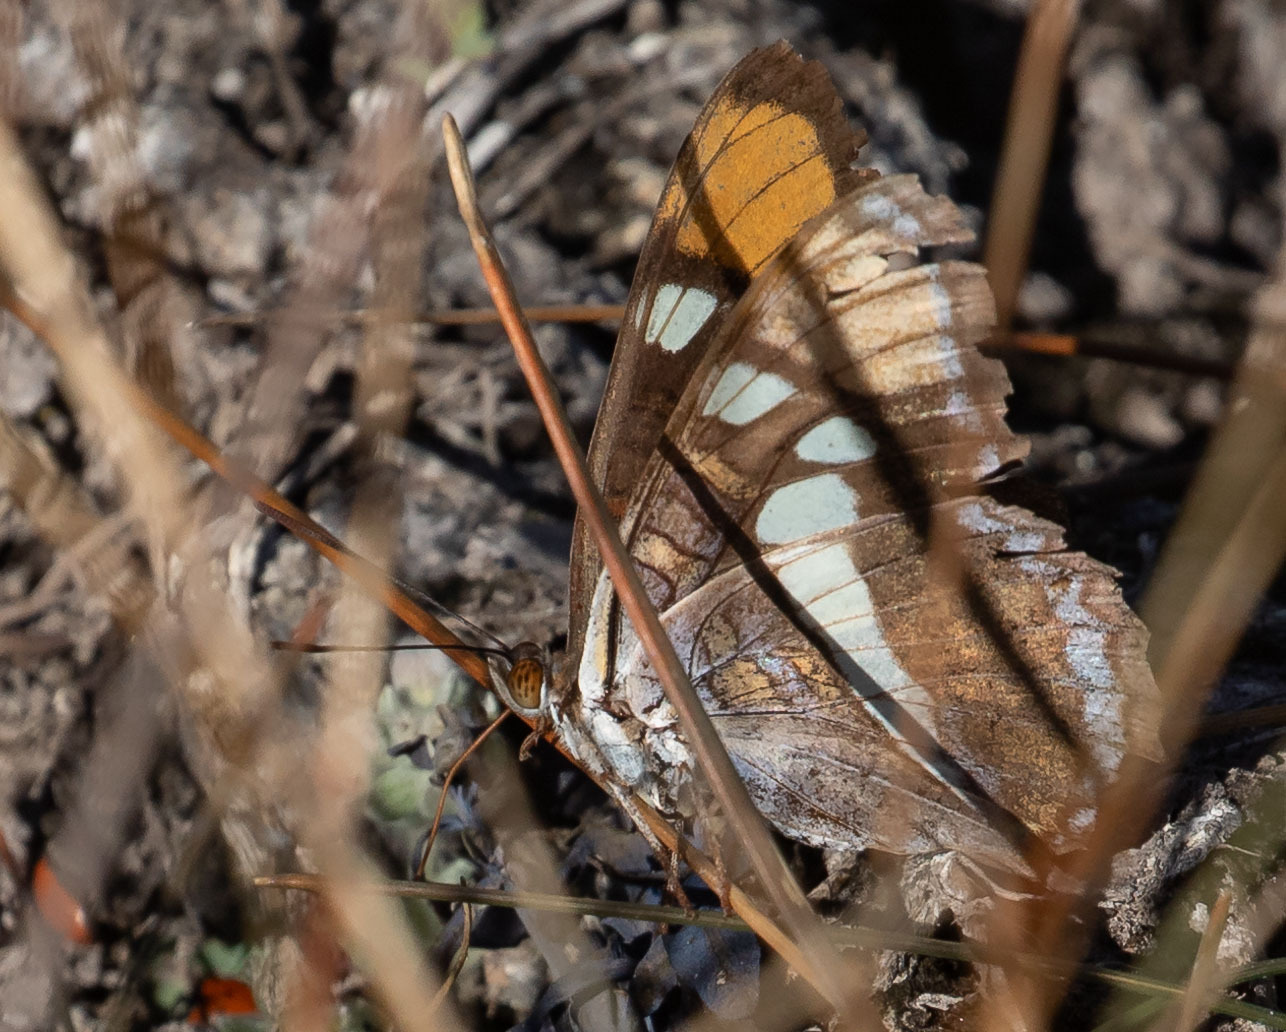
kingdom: Animalia
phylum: Arthropoda
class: Insecta
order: Lepidoptera
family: Nymphalidae
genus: Limenitis
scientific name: Limenitis bredowii
